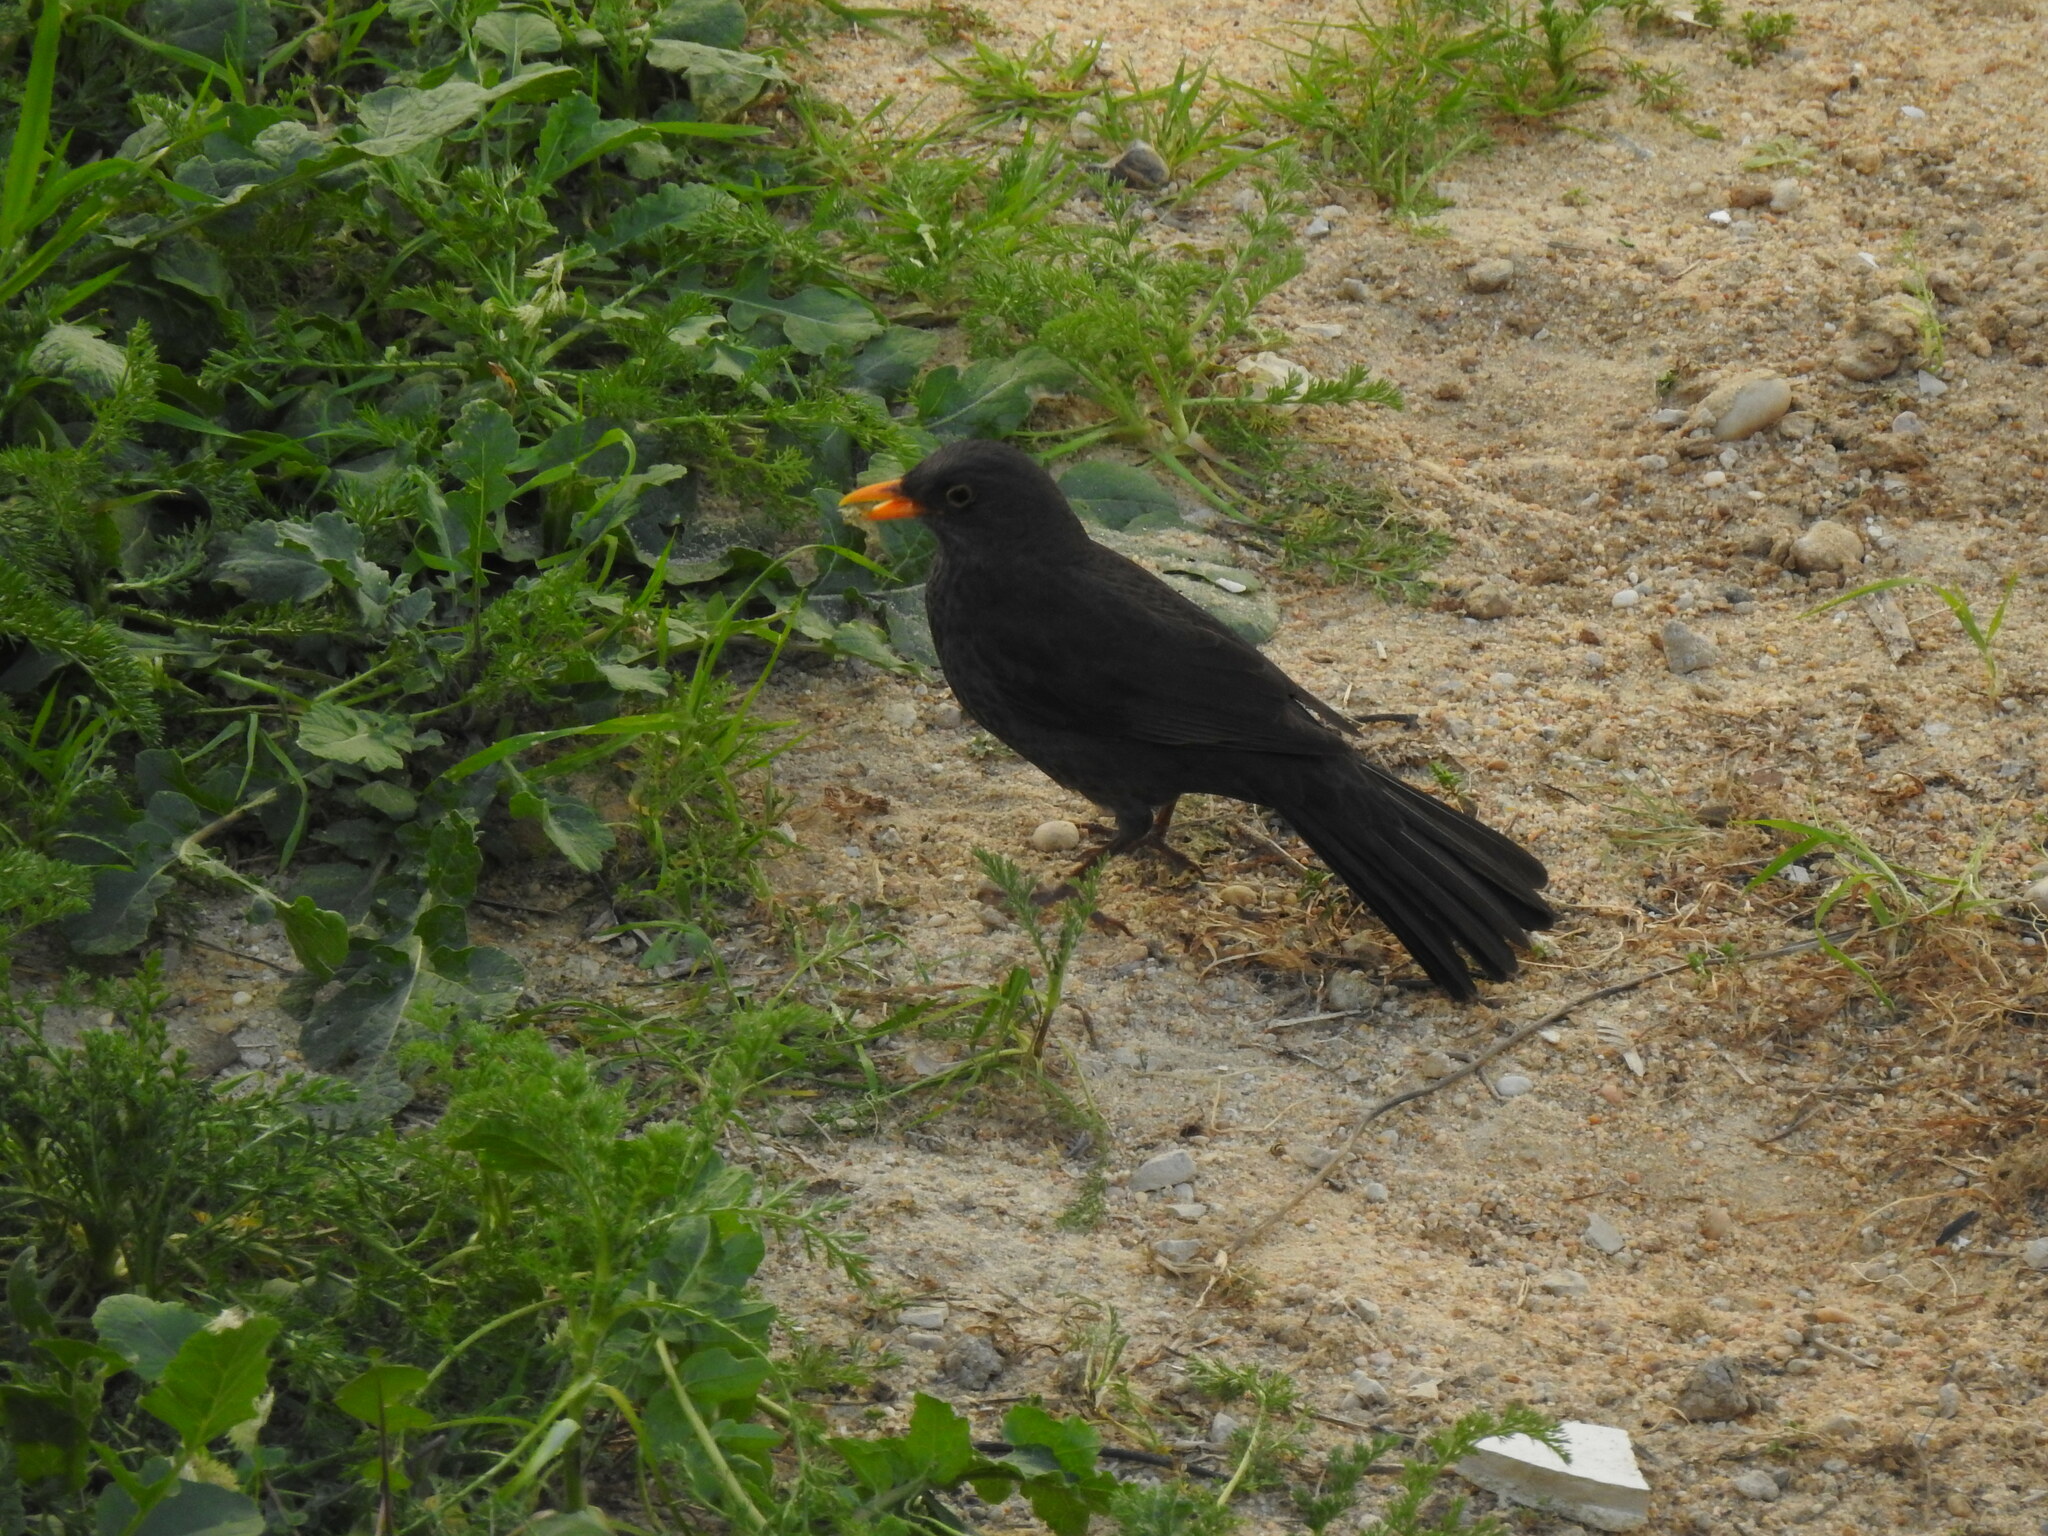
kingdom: Animalia
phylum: Chordata
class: Aves
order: Passeriformes
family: Turdidae
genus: Turdus
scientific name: Turdus merula
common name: Common blackbird
